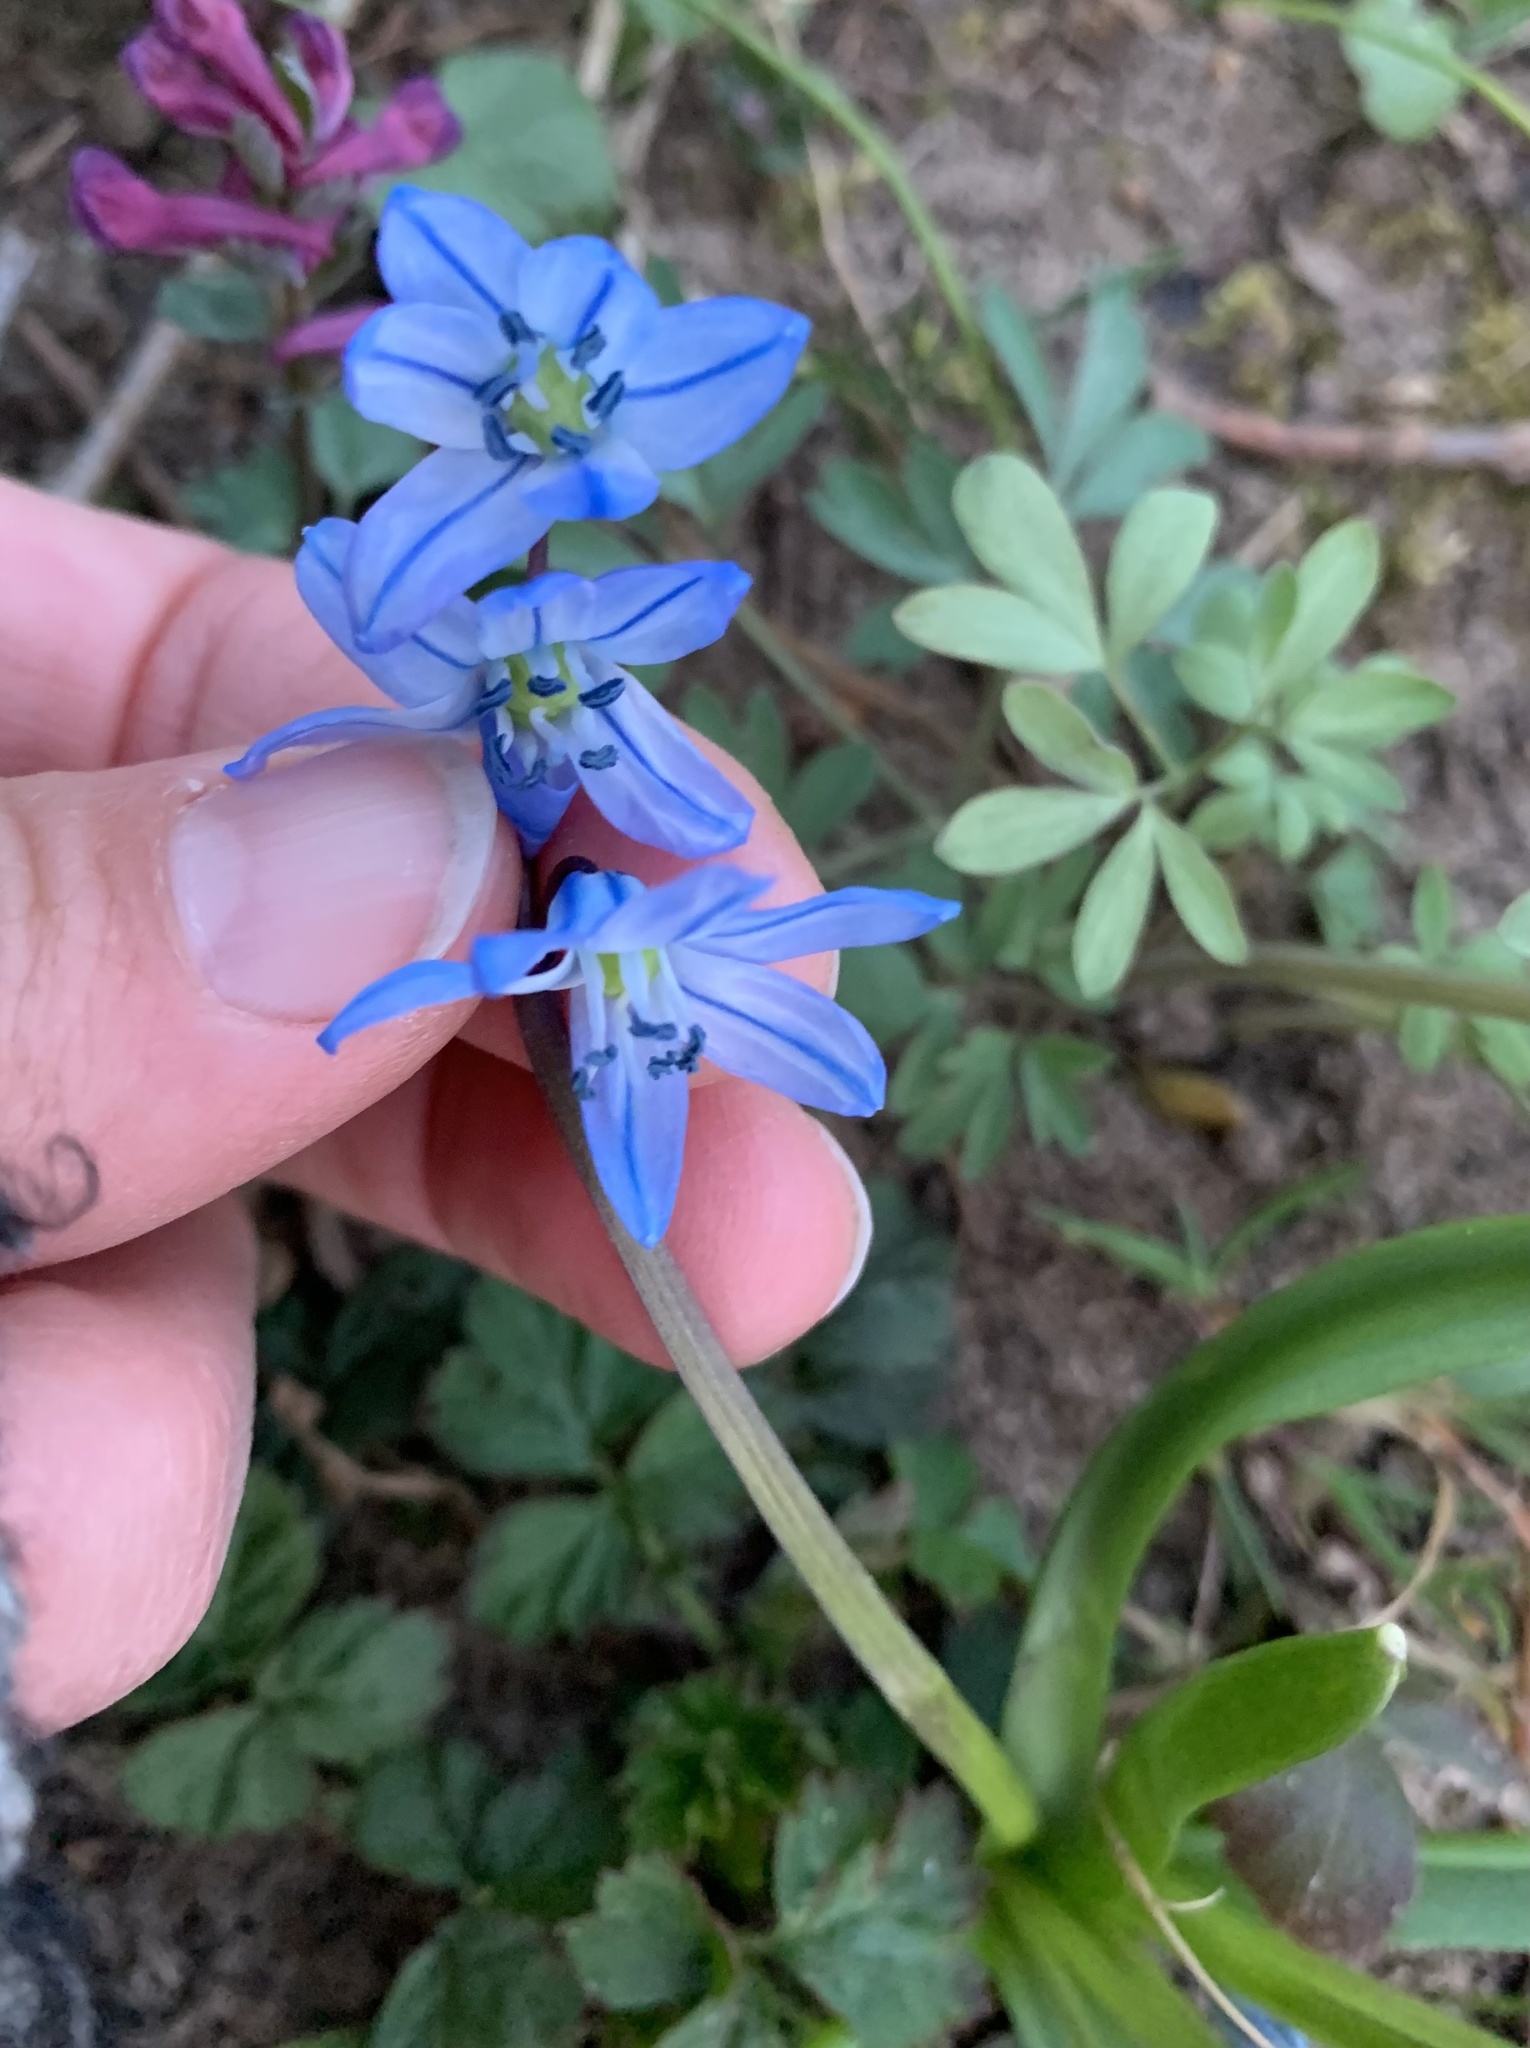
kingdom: Plantae
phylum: Tracheophyta
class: Liliopsida
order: Asparagales
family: Asparagaceae
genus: Scilla
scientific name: Scilla siberica
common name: Siberian squill
